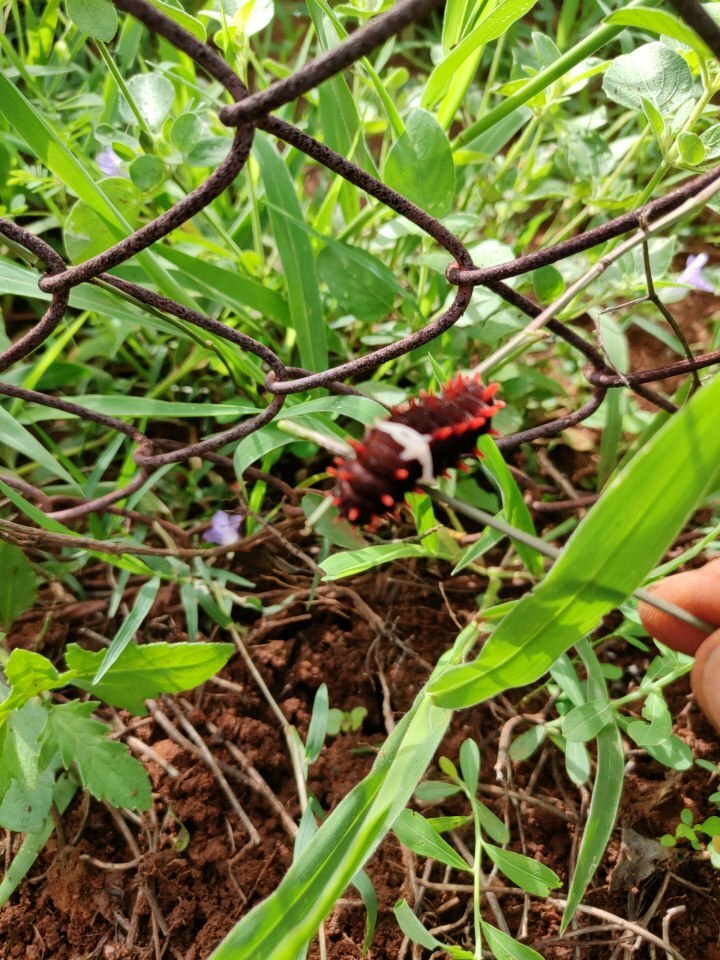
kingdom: Animalia
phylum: Arthropoda
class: Insecta
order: Lepidoptera
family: Papilionidae
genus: Pachliopta
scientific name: Pachliopta aristolochiae
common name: Common rose
